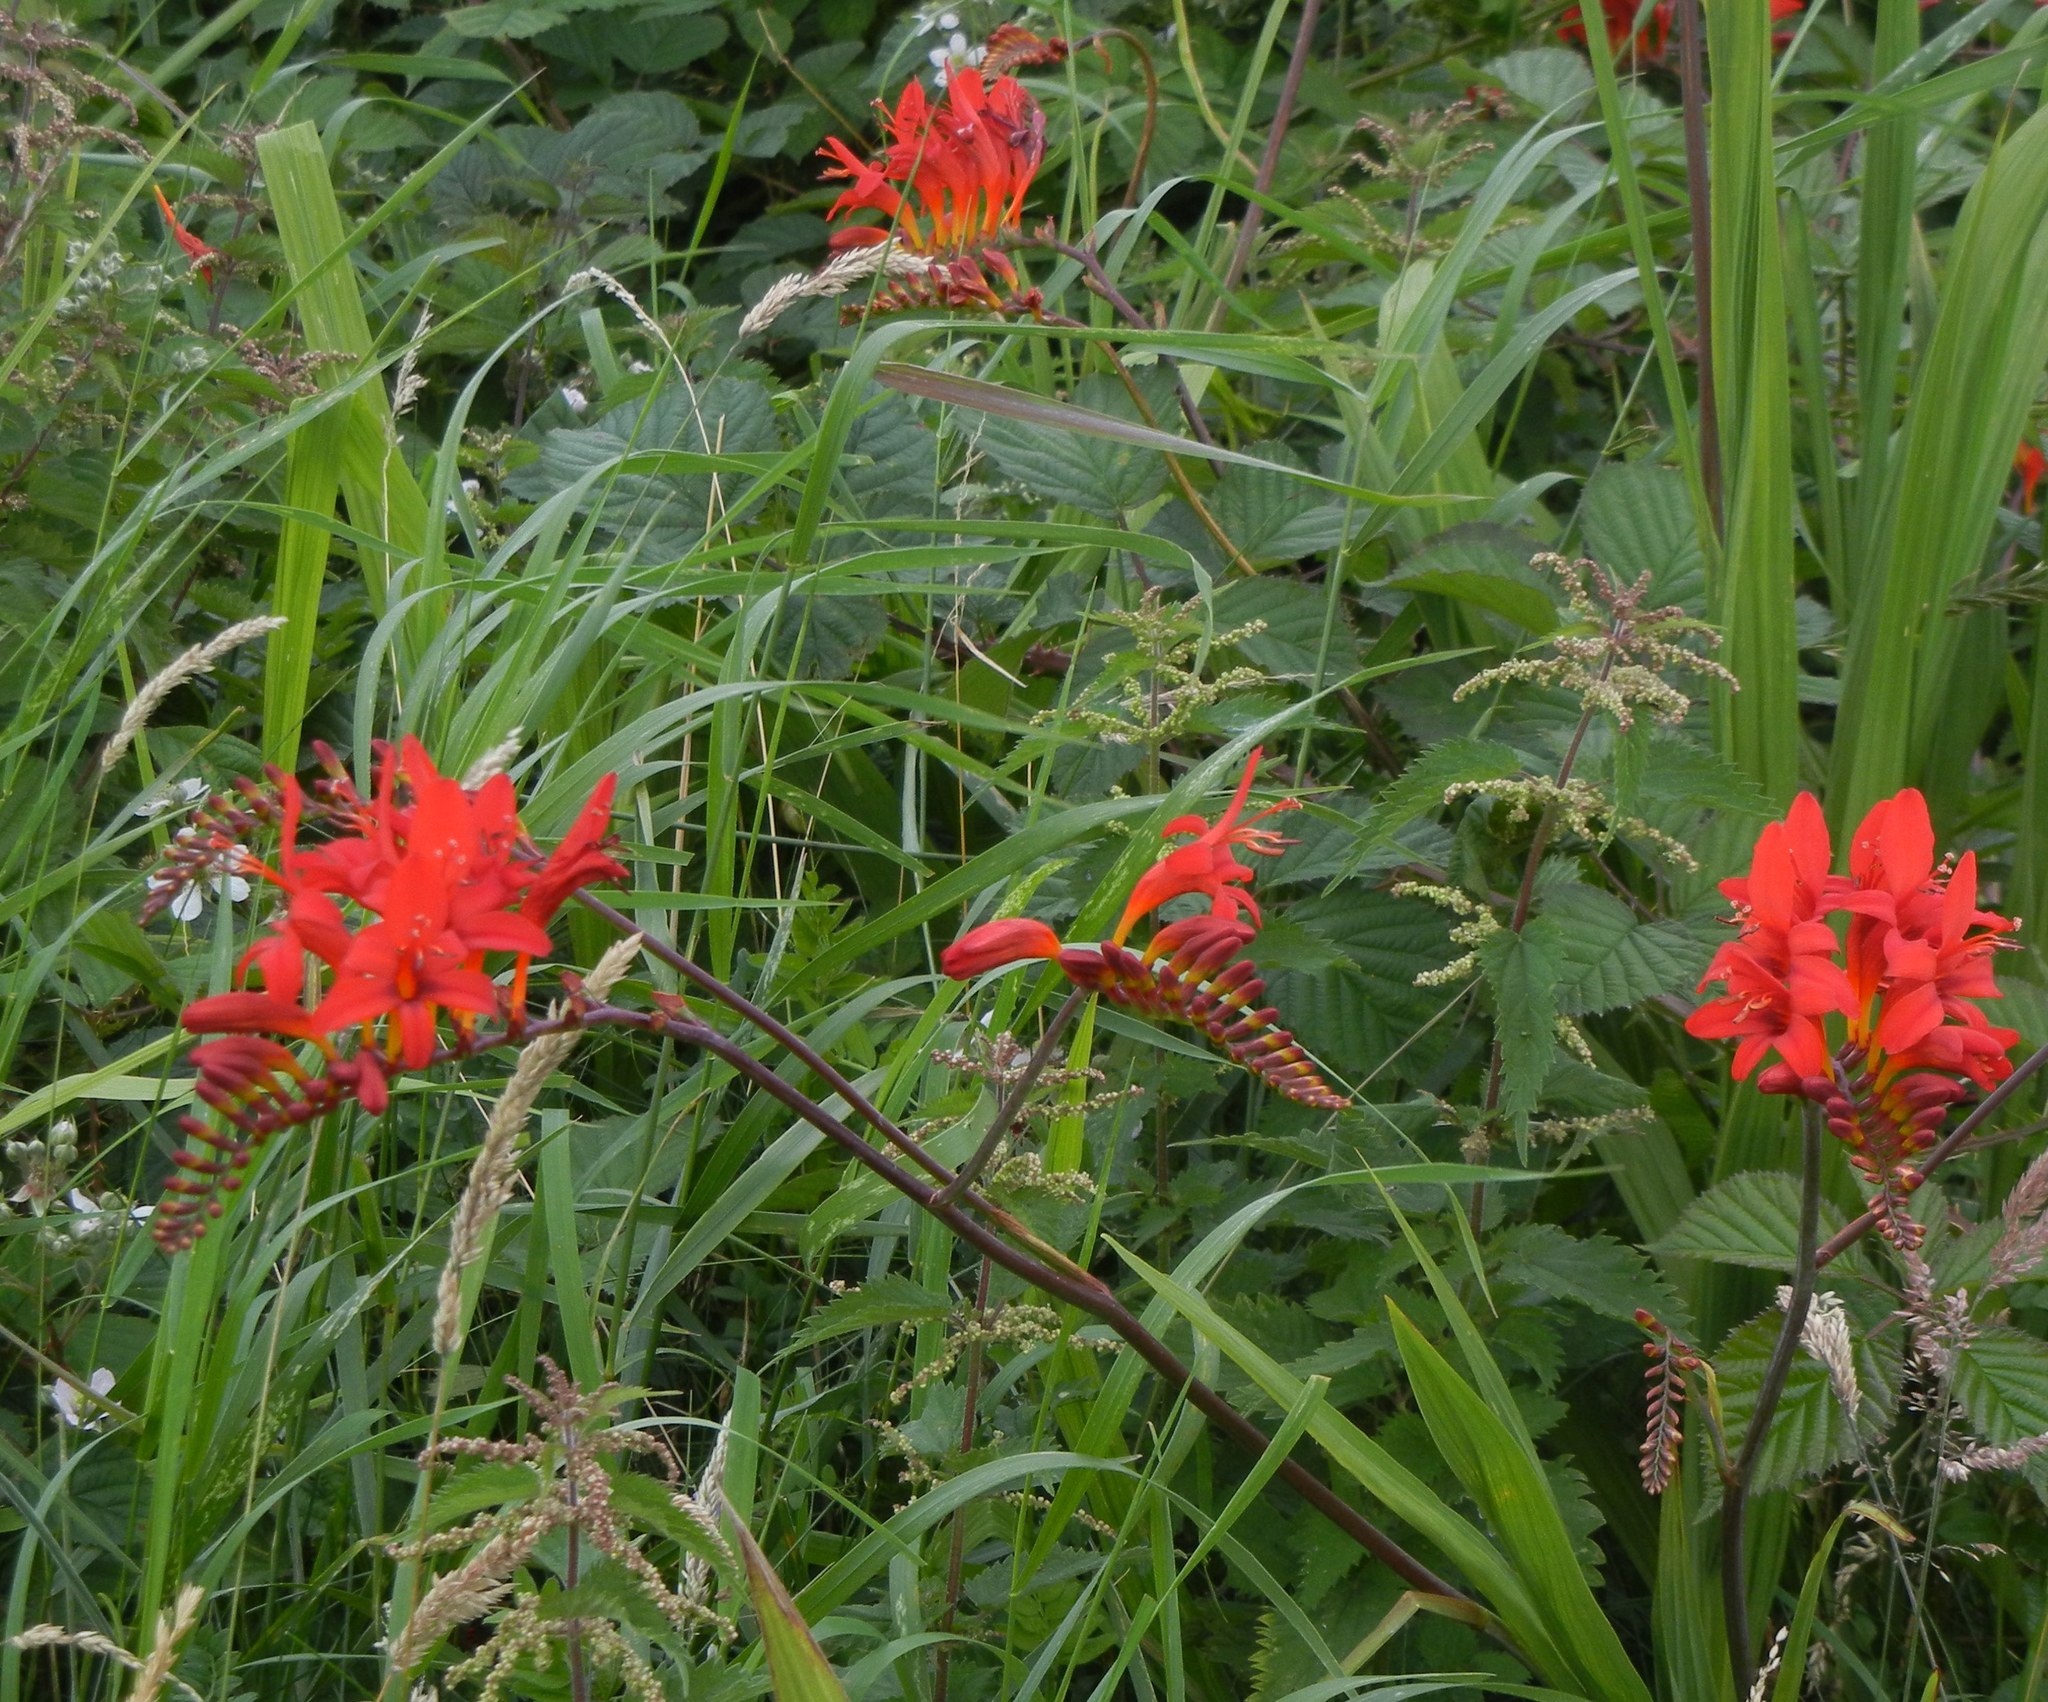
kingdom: Plantae
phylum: Tracheophyta
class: Liliopsida
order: Asparagales
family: Iridaceae
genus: Crocosmia
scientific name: Crocosmia
